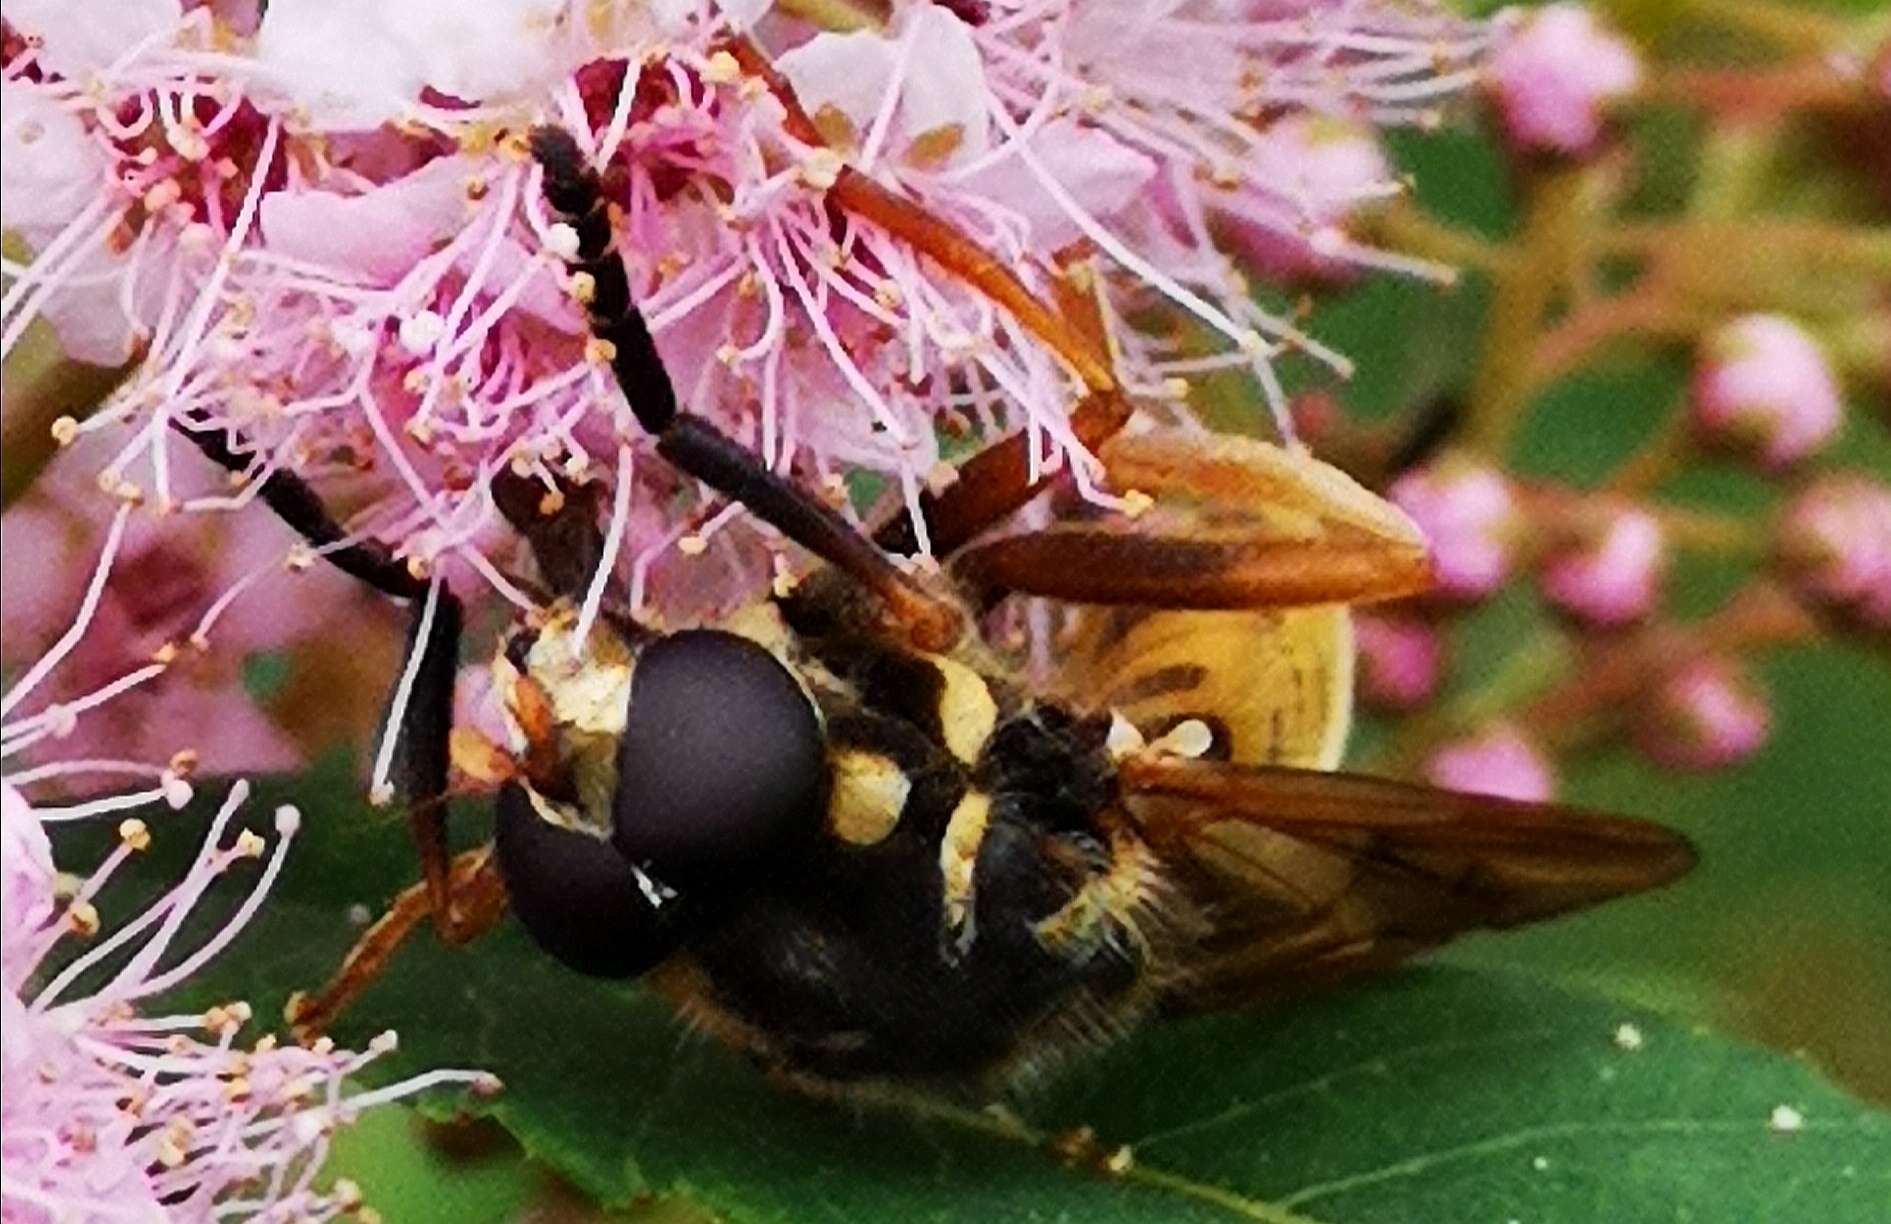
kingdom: Animalia
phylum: Arthropoda
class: Insecta
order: Diptera
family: Syrphidae
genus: Temnostoma
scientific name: Temnostoma vespiforme
